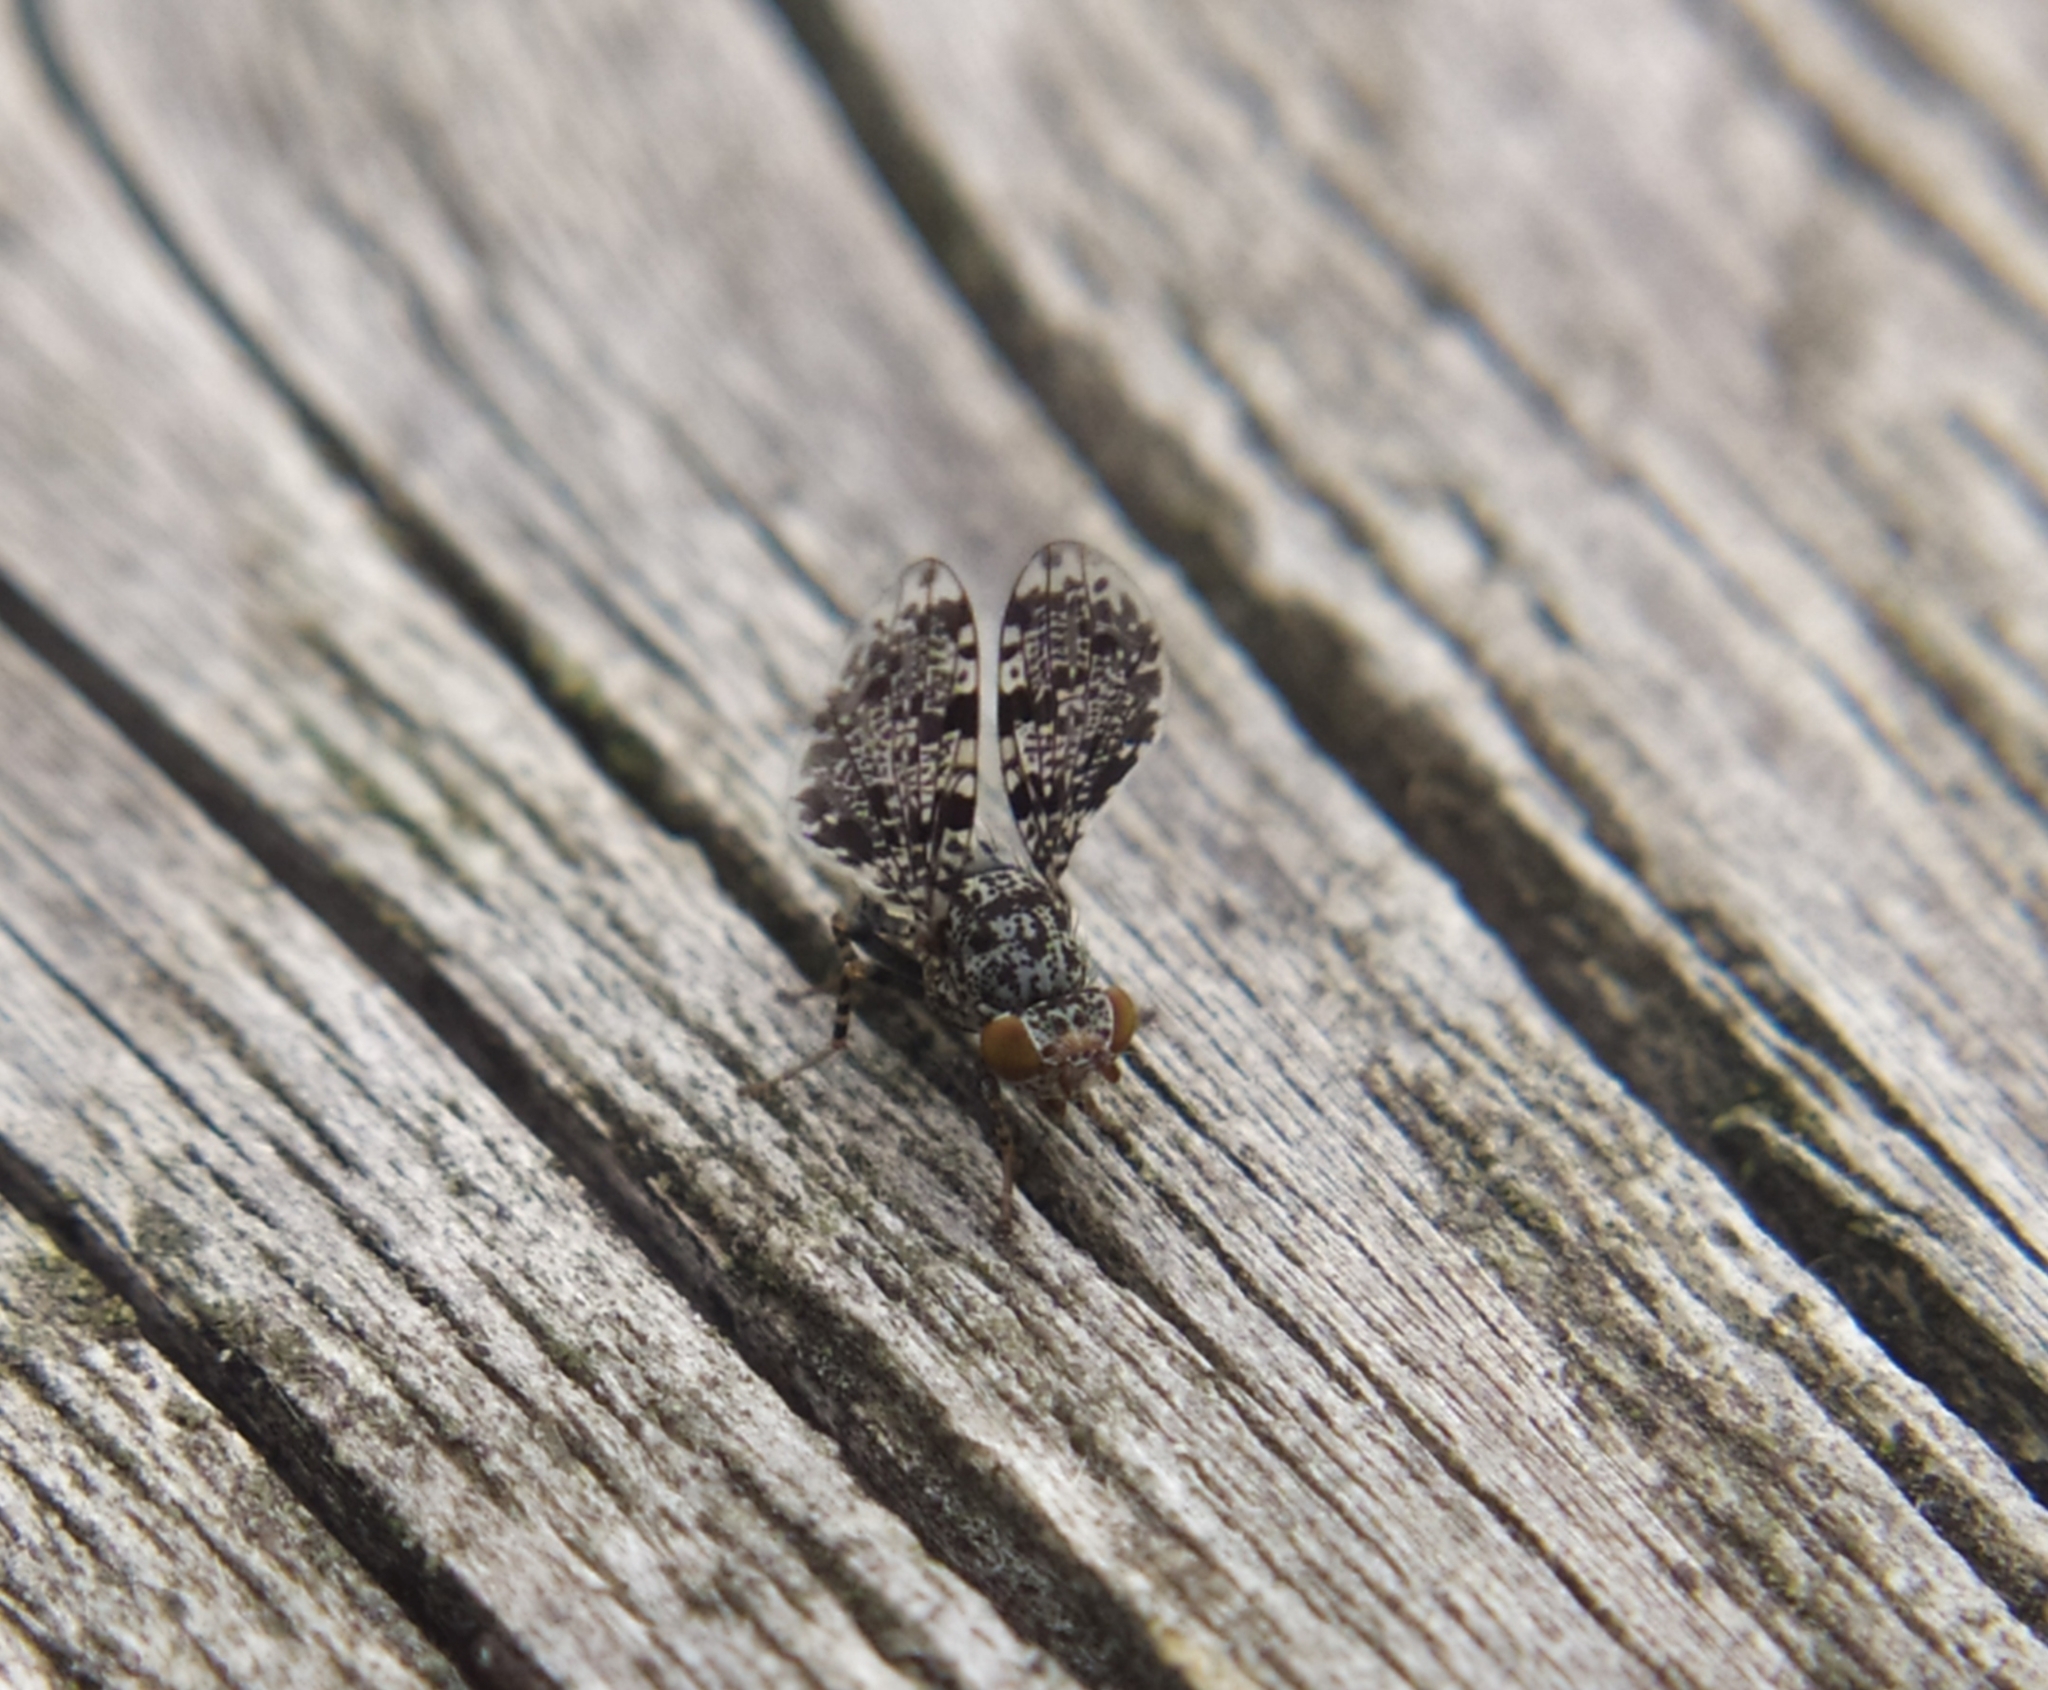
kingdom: Animalia
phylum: Arthropoda
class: Insecta
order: Diptera
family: Ulidiidae
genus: Callopistromyia
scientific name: Callopistromyia annulipes
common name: Peacock fly
